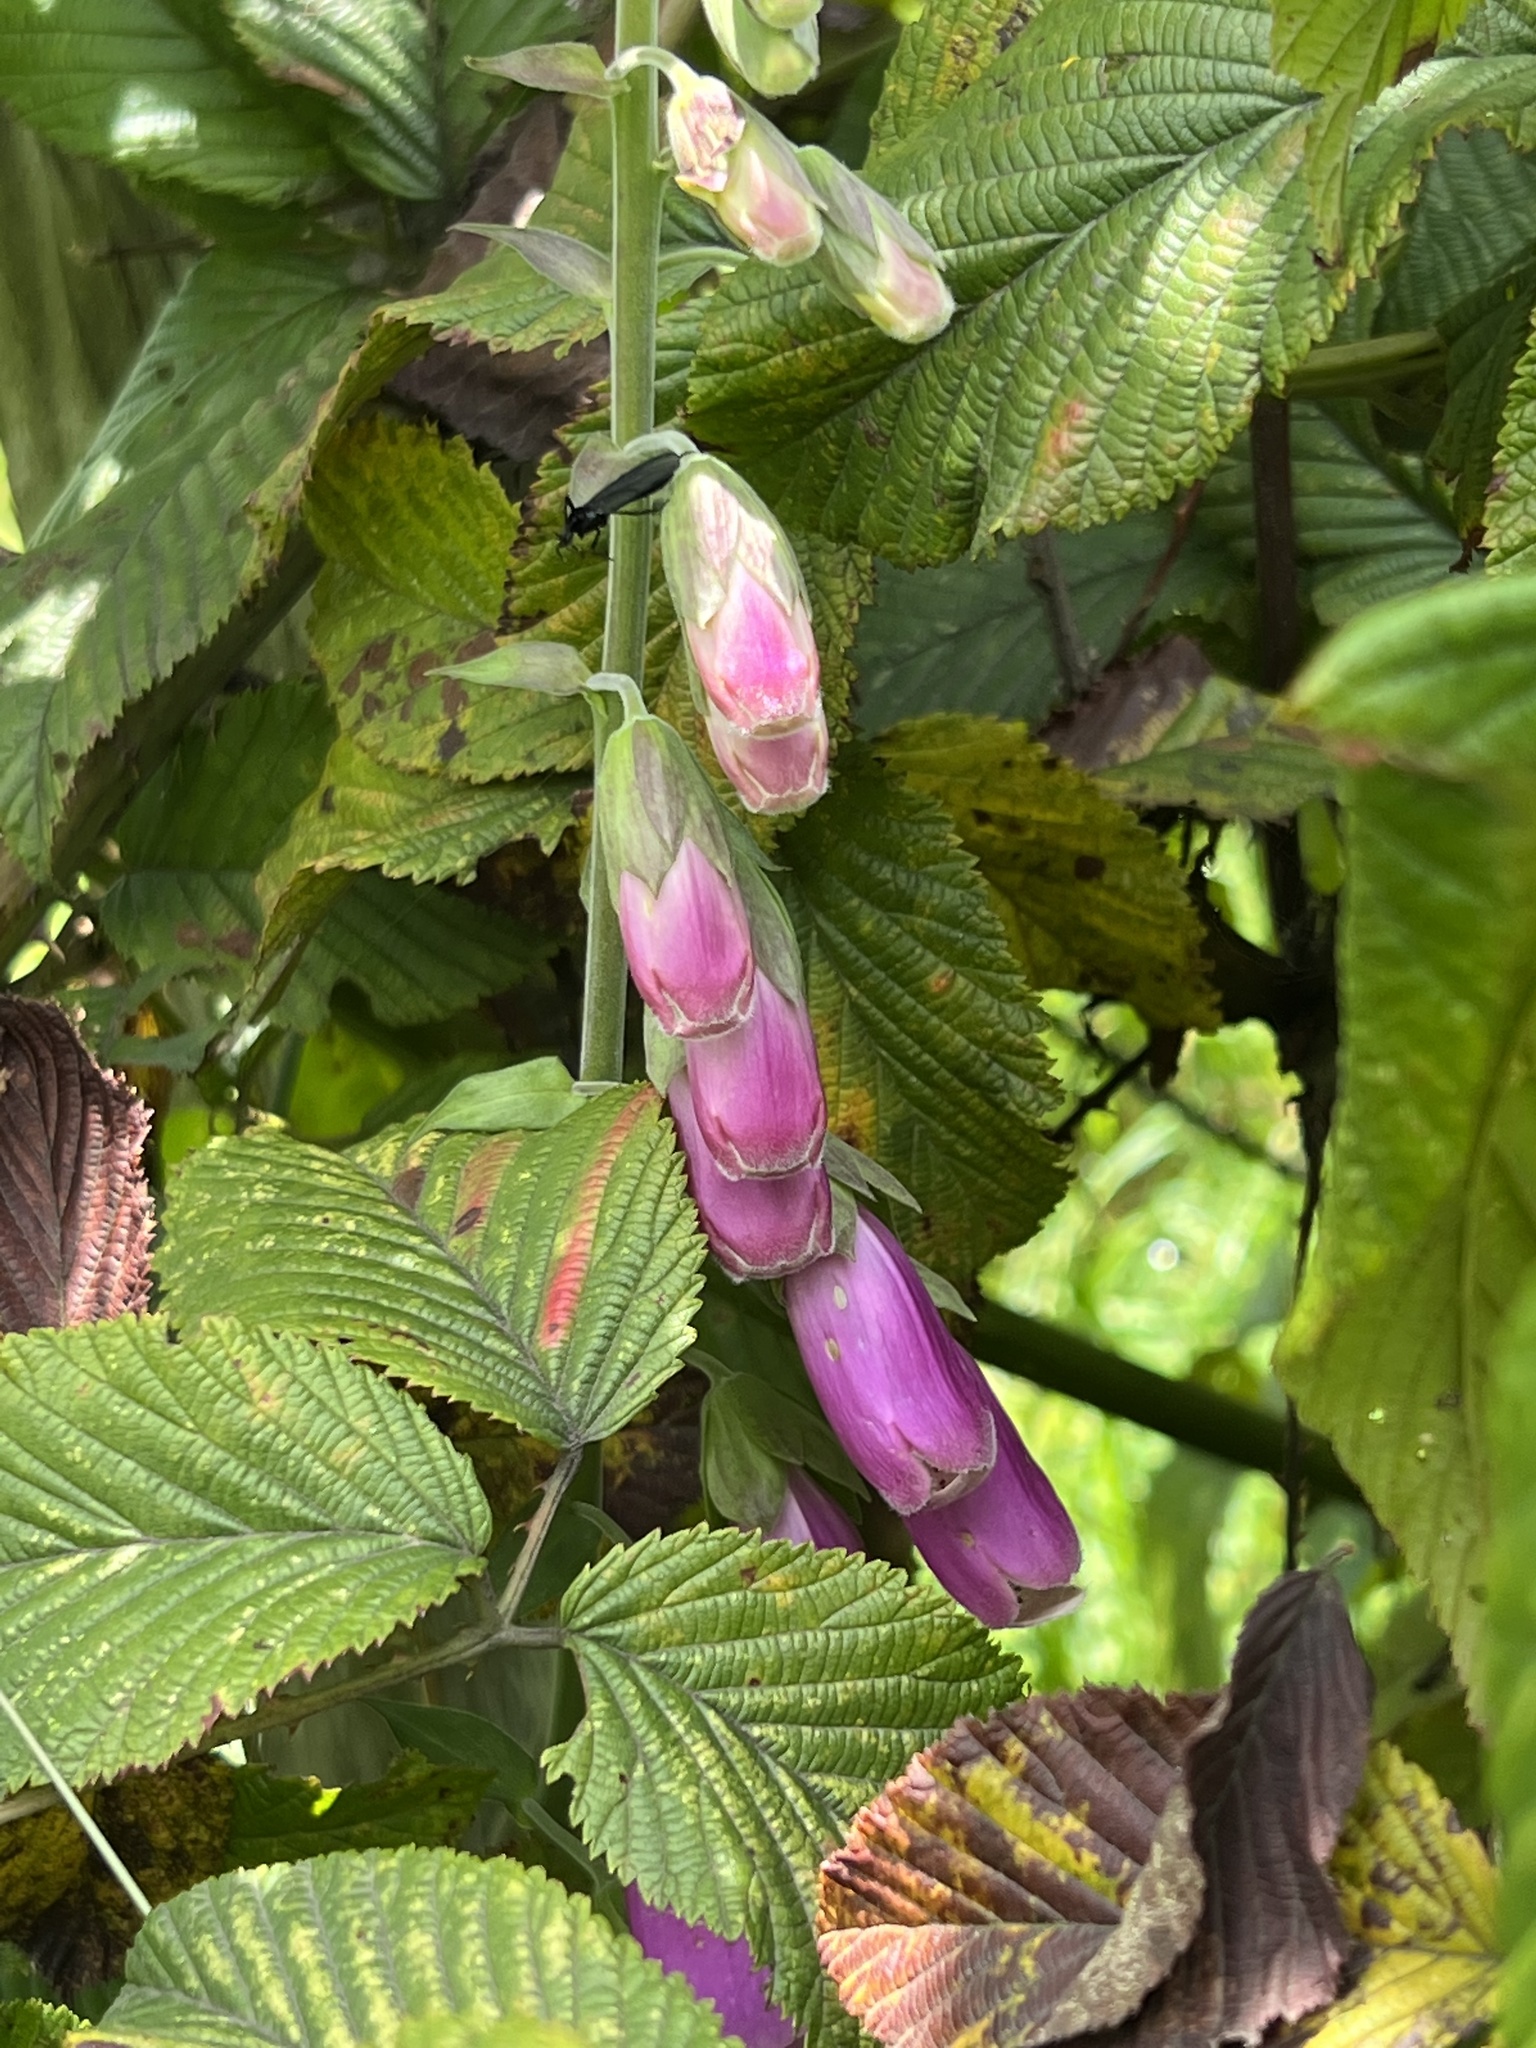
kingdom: Plantae
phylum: Tracheophyta
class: Magnoliopsida
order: Lamiales
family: Plantaginaceae
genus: Digitalis
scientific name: Digitalis purpurea
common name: Foxglove
